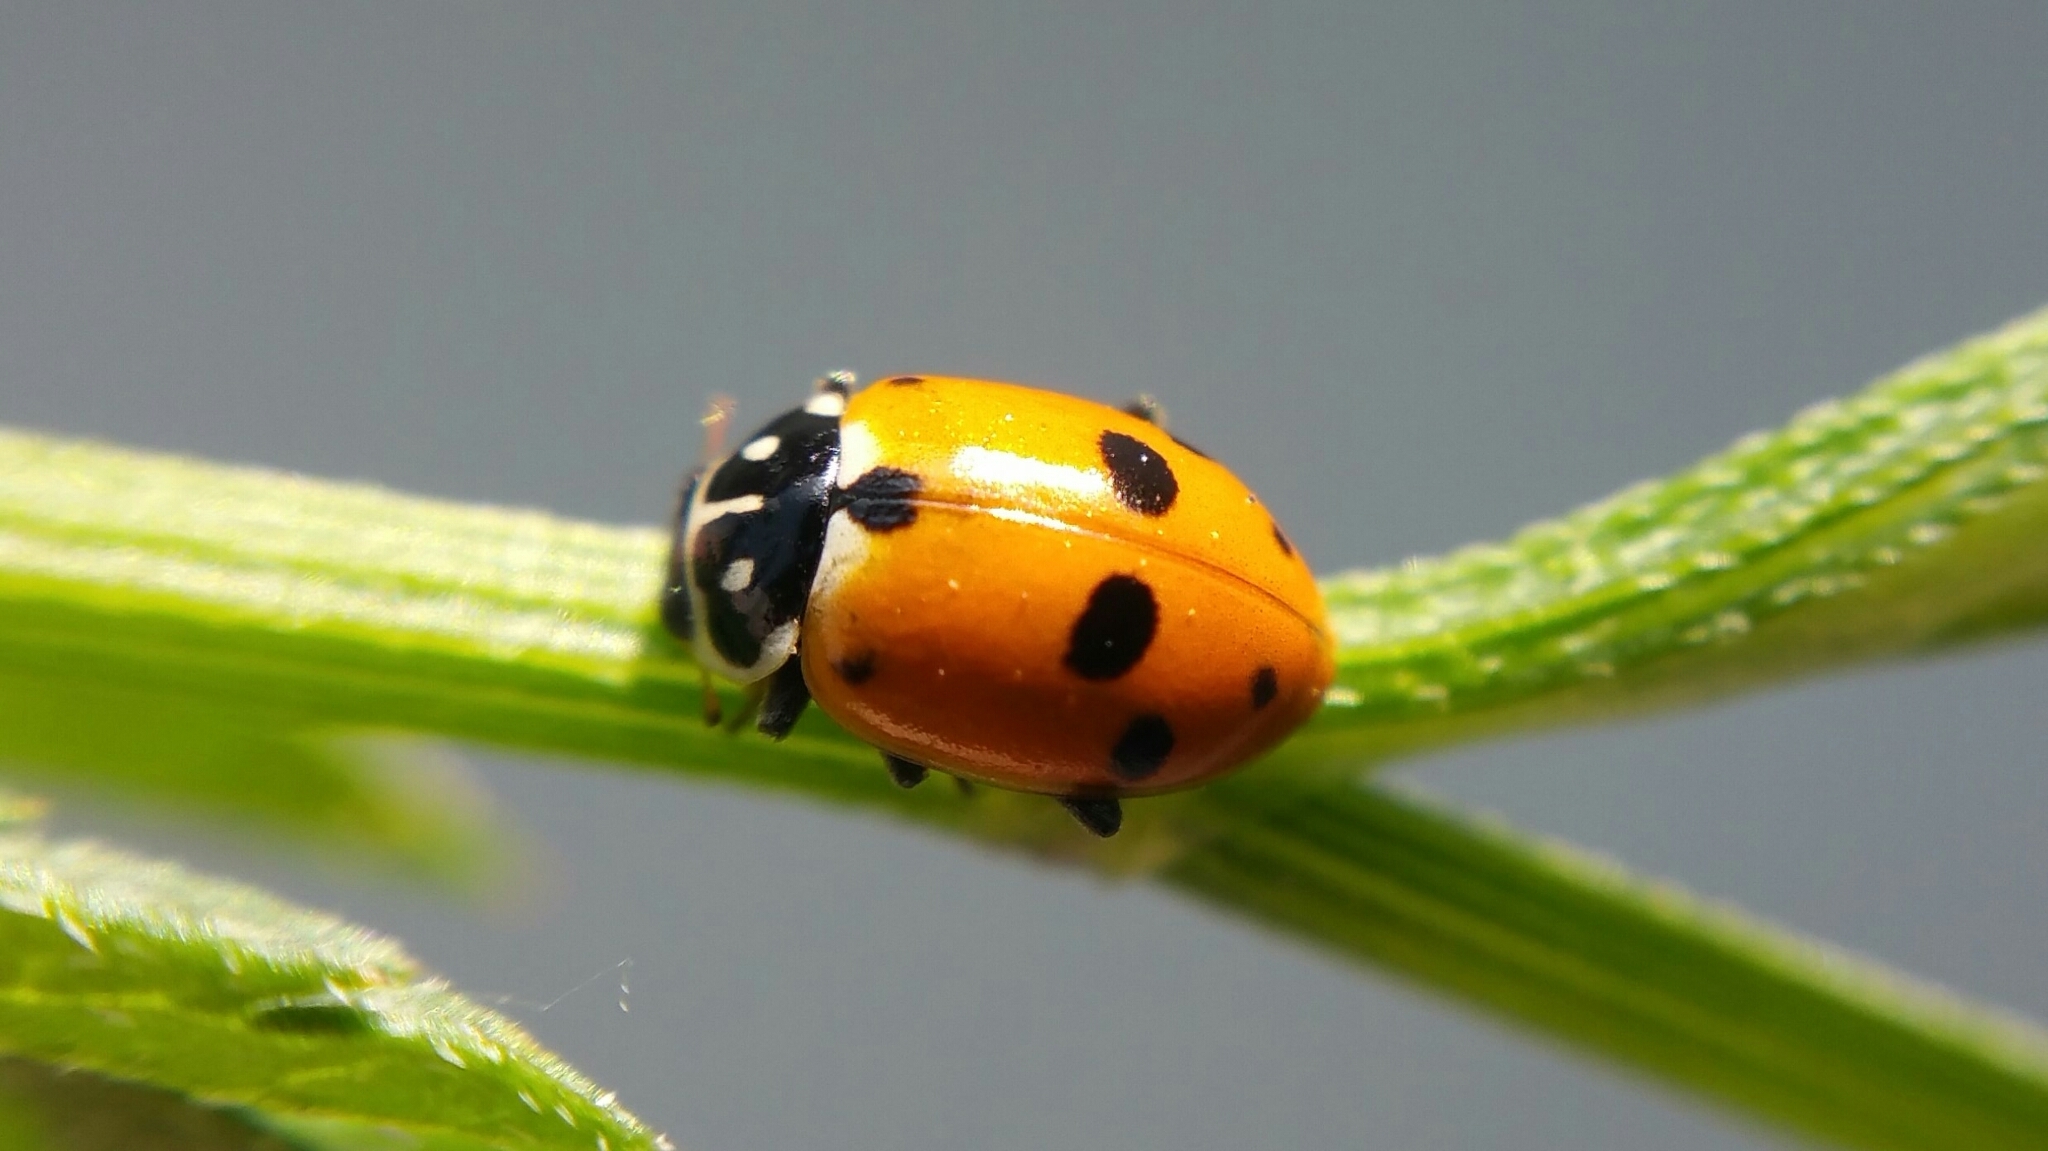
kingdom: Animalia
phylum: Arthropoda
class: Insecta
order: Coleoptera
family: Coccinellidae
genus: Hippodamia
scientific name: Hippodamia variegata
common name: Ladybird beetle
